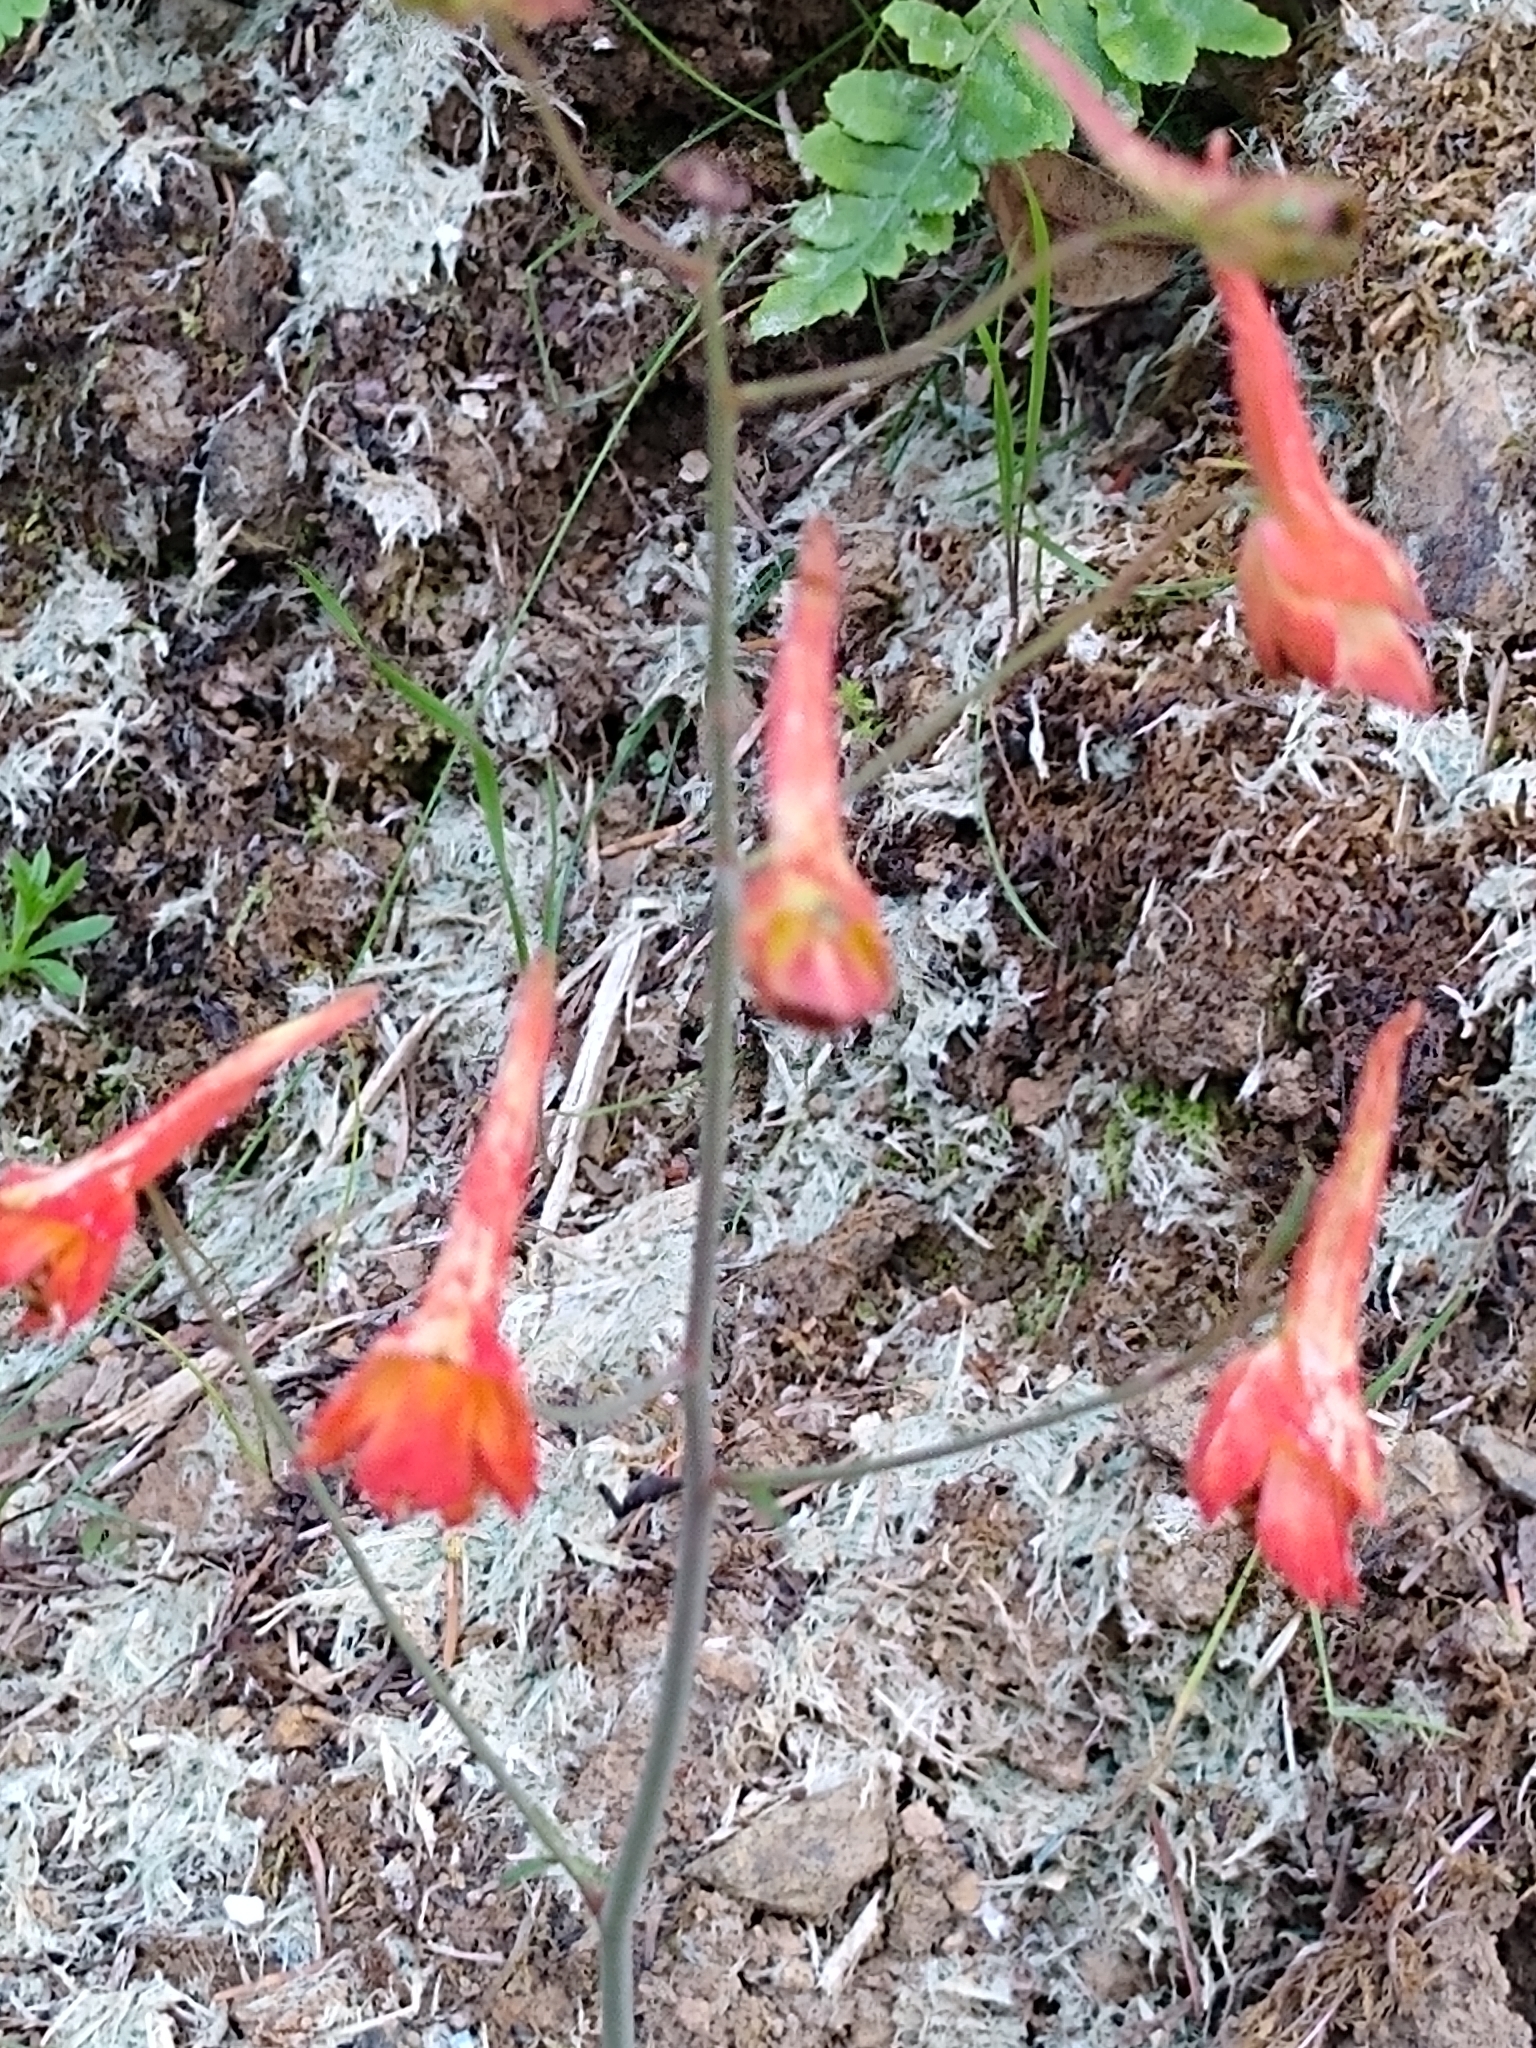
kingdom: Plantae
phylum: Tracheophyta
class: Magnoliopsida
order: Ranunculales
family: Ranunculaceae
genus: Delphinium
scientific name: Delphinium nudicaule
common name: Red larkspur
